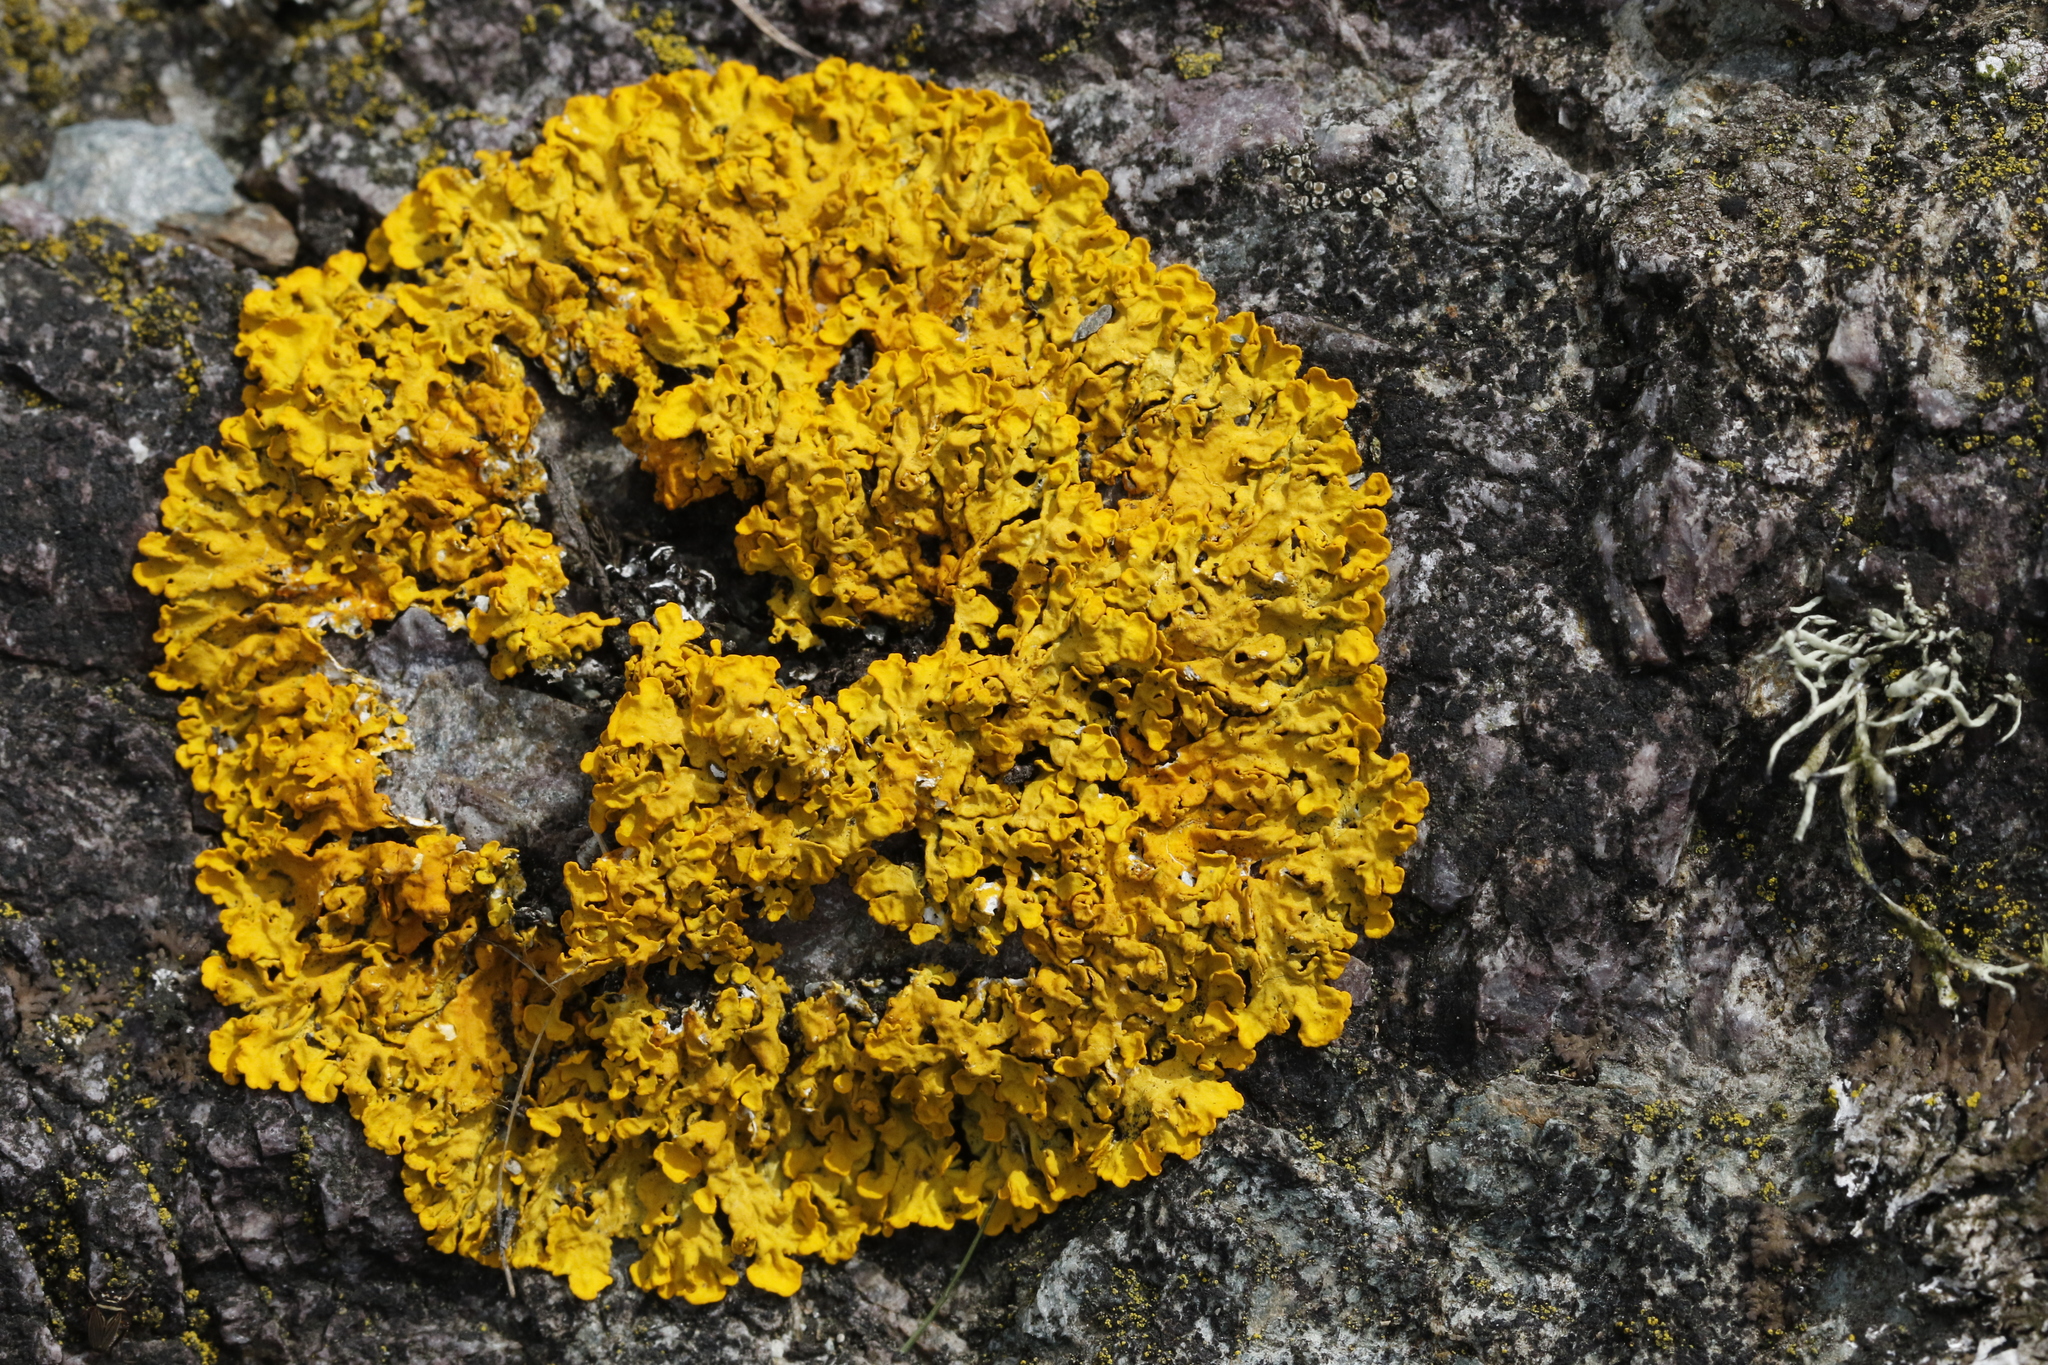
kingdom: Fungi
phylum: Ascomycota
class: Lecanoromycetes
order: Teloschistales
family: Teloschistaceae
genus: Xanthoria
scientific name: Xanthoria aureola
